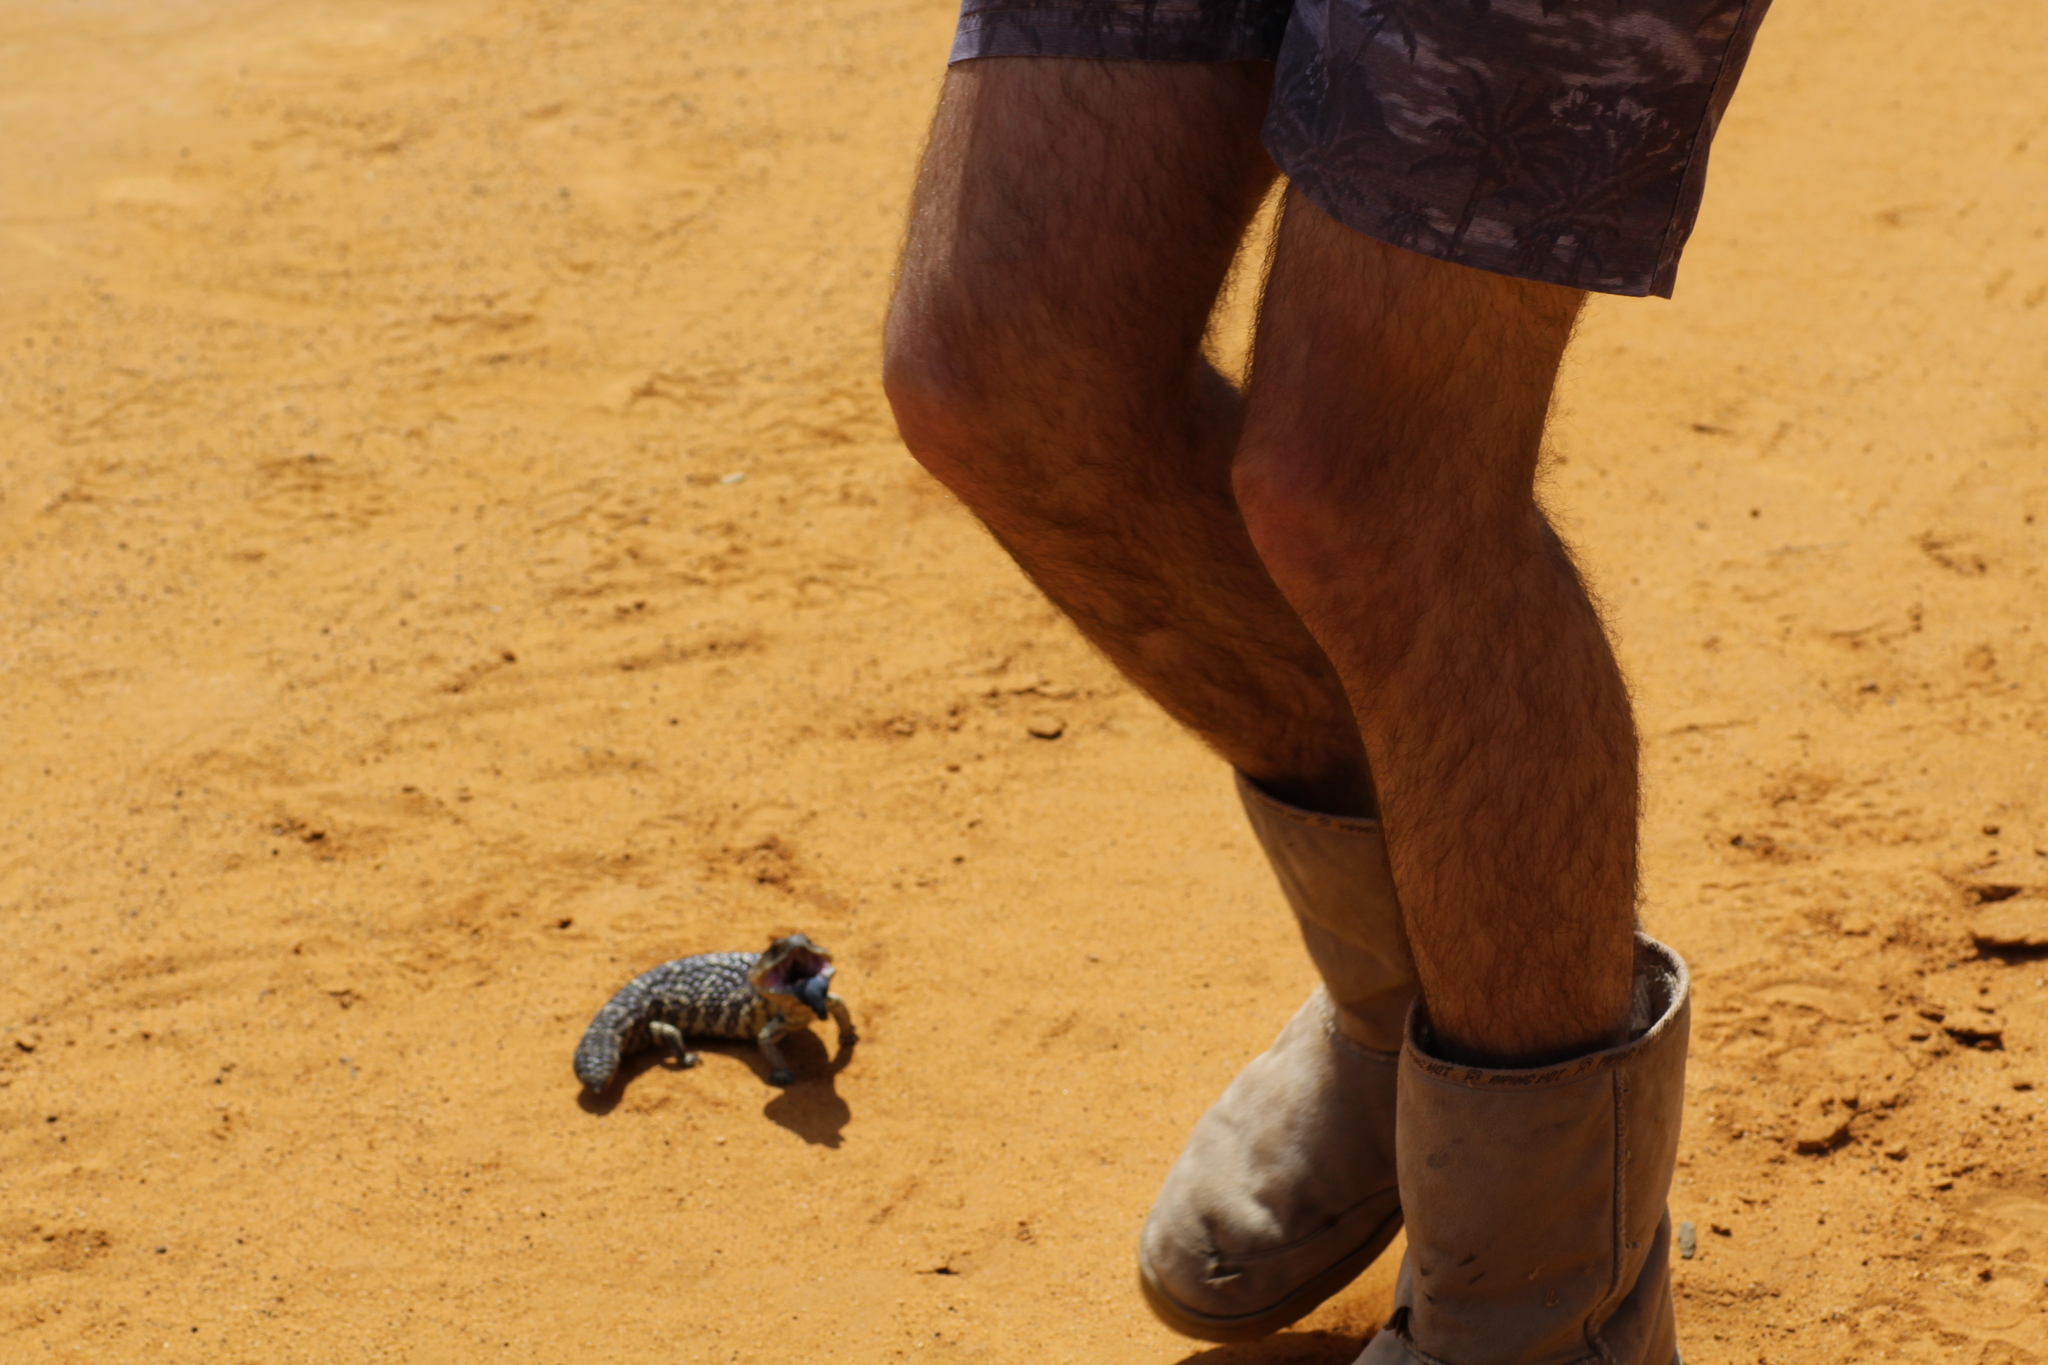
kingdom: Animalia
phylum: Chordata
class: Squamata
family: Scincidae
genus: Tiliqua
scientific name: Tiliqua rugosa
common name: Pinecone lizard
